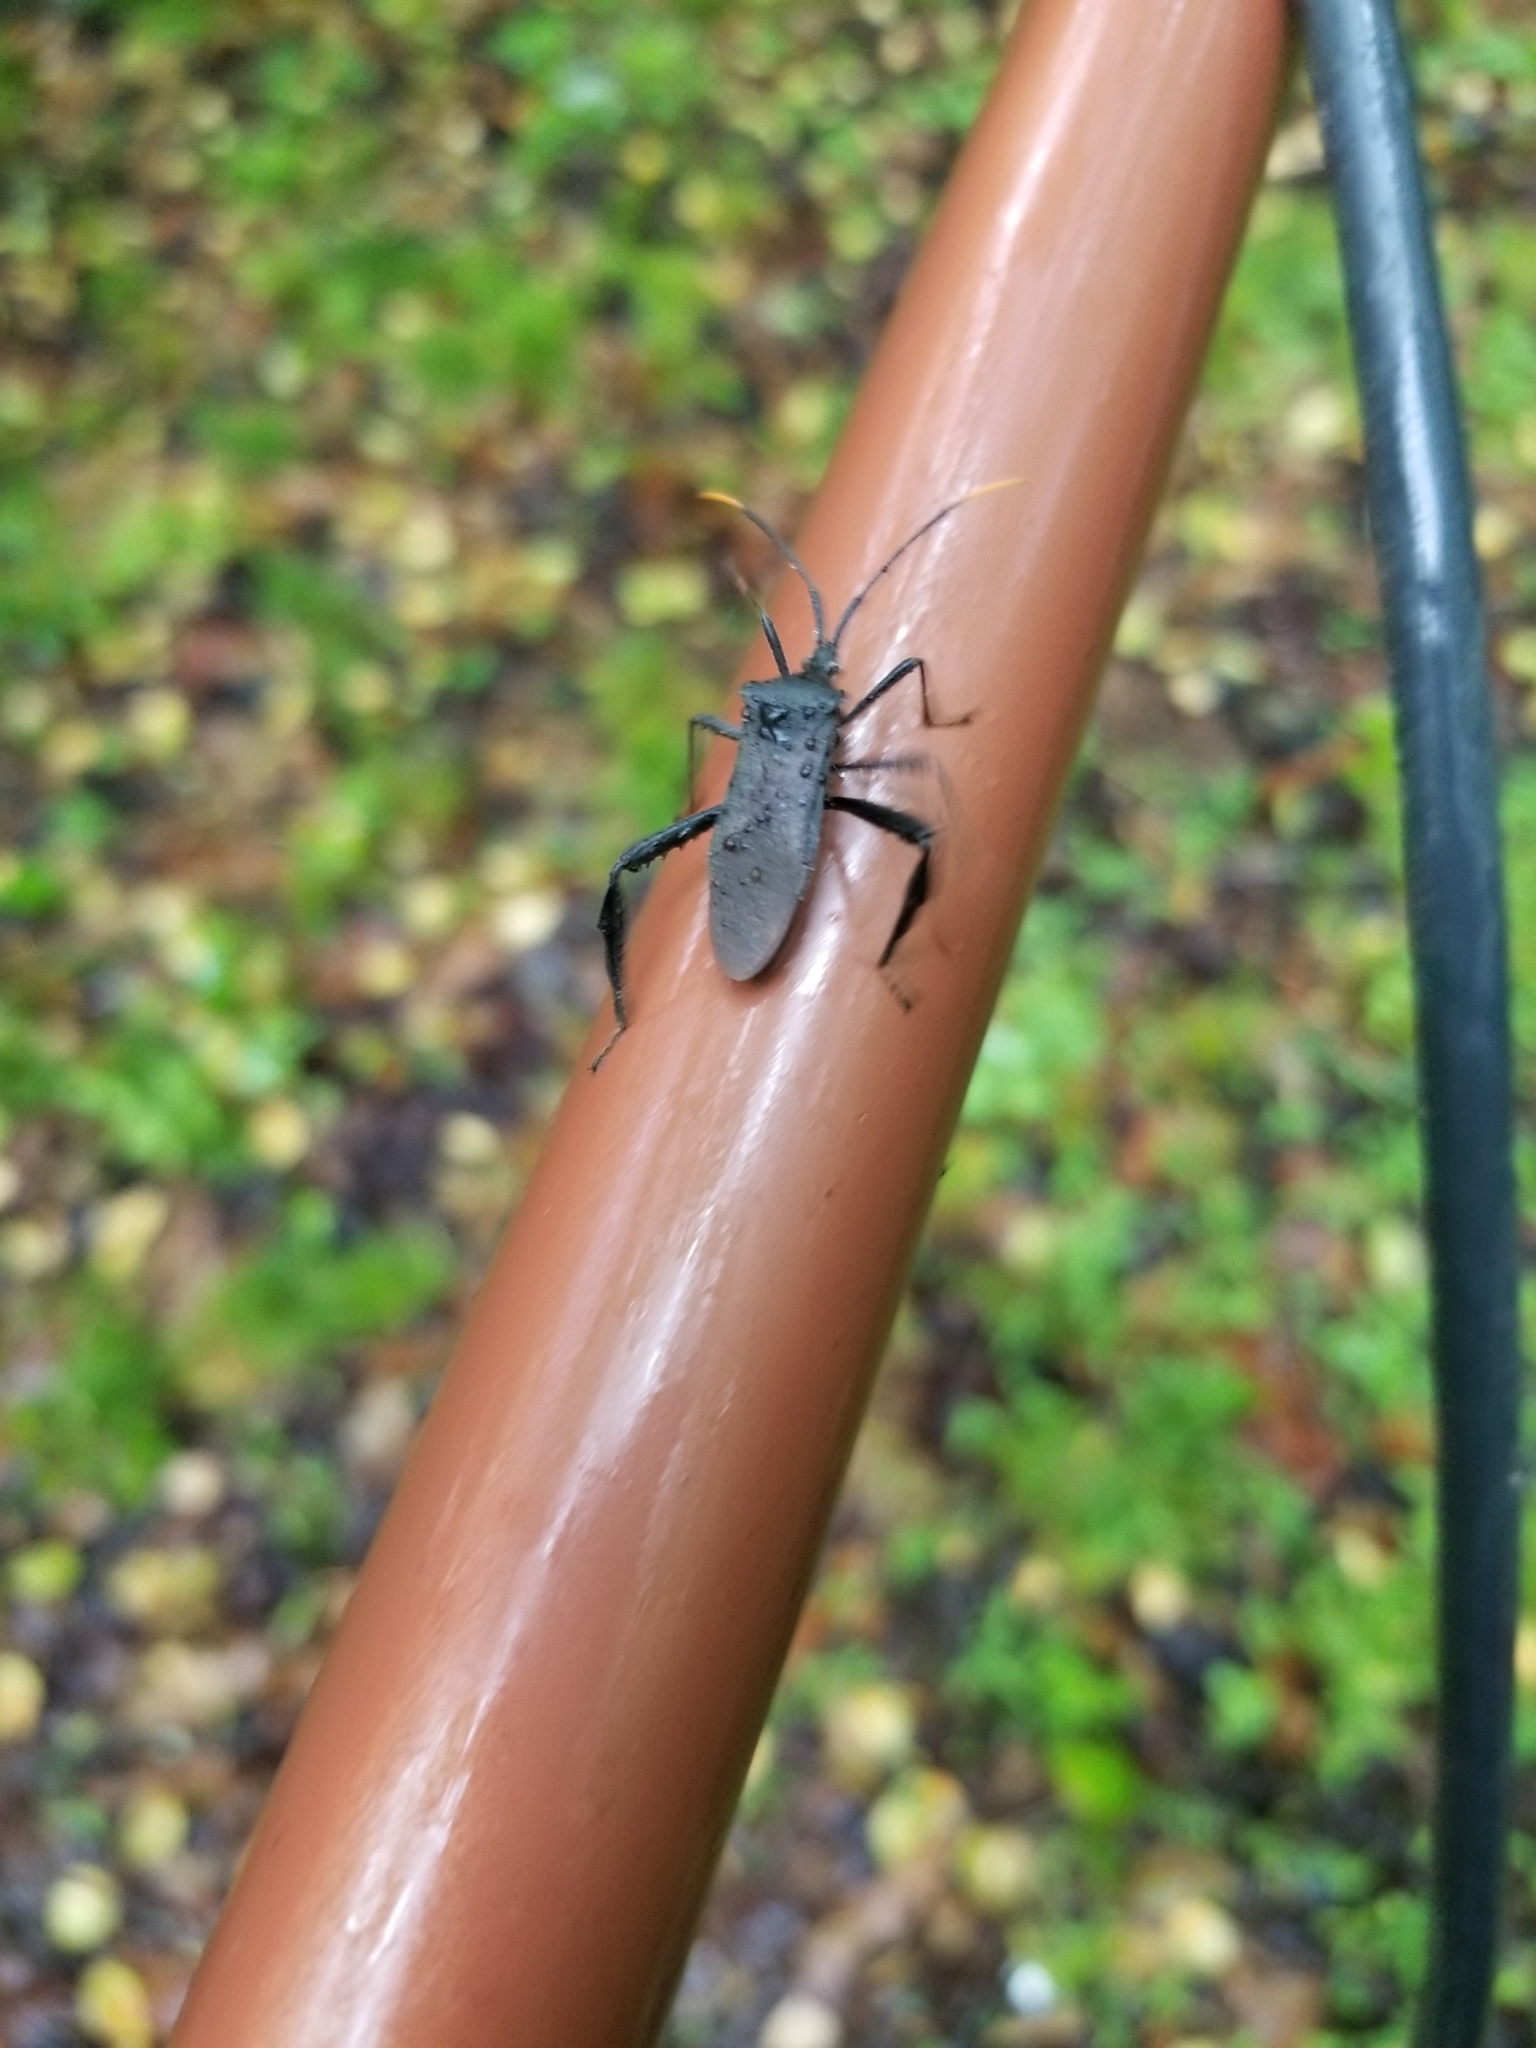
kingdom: Animalia
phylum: Arthropoda
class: Insecta
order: Hemiptera
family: Coreidae
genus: Acanthocephala
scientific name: Acanthocephala terminalis
